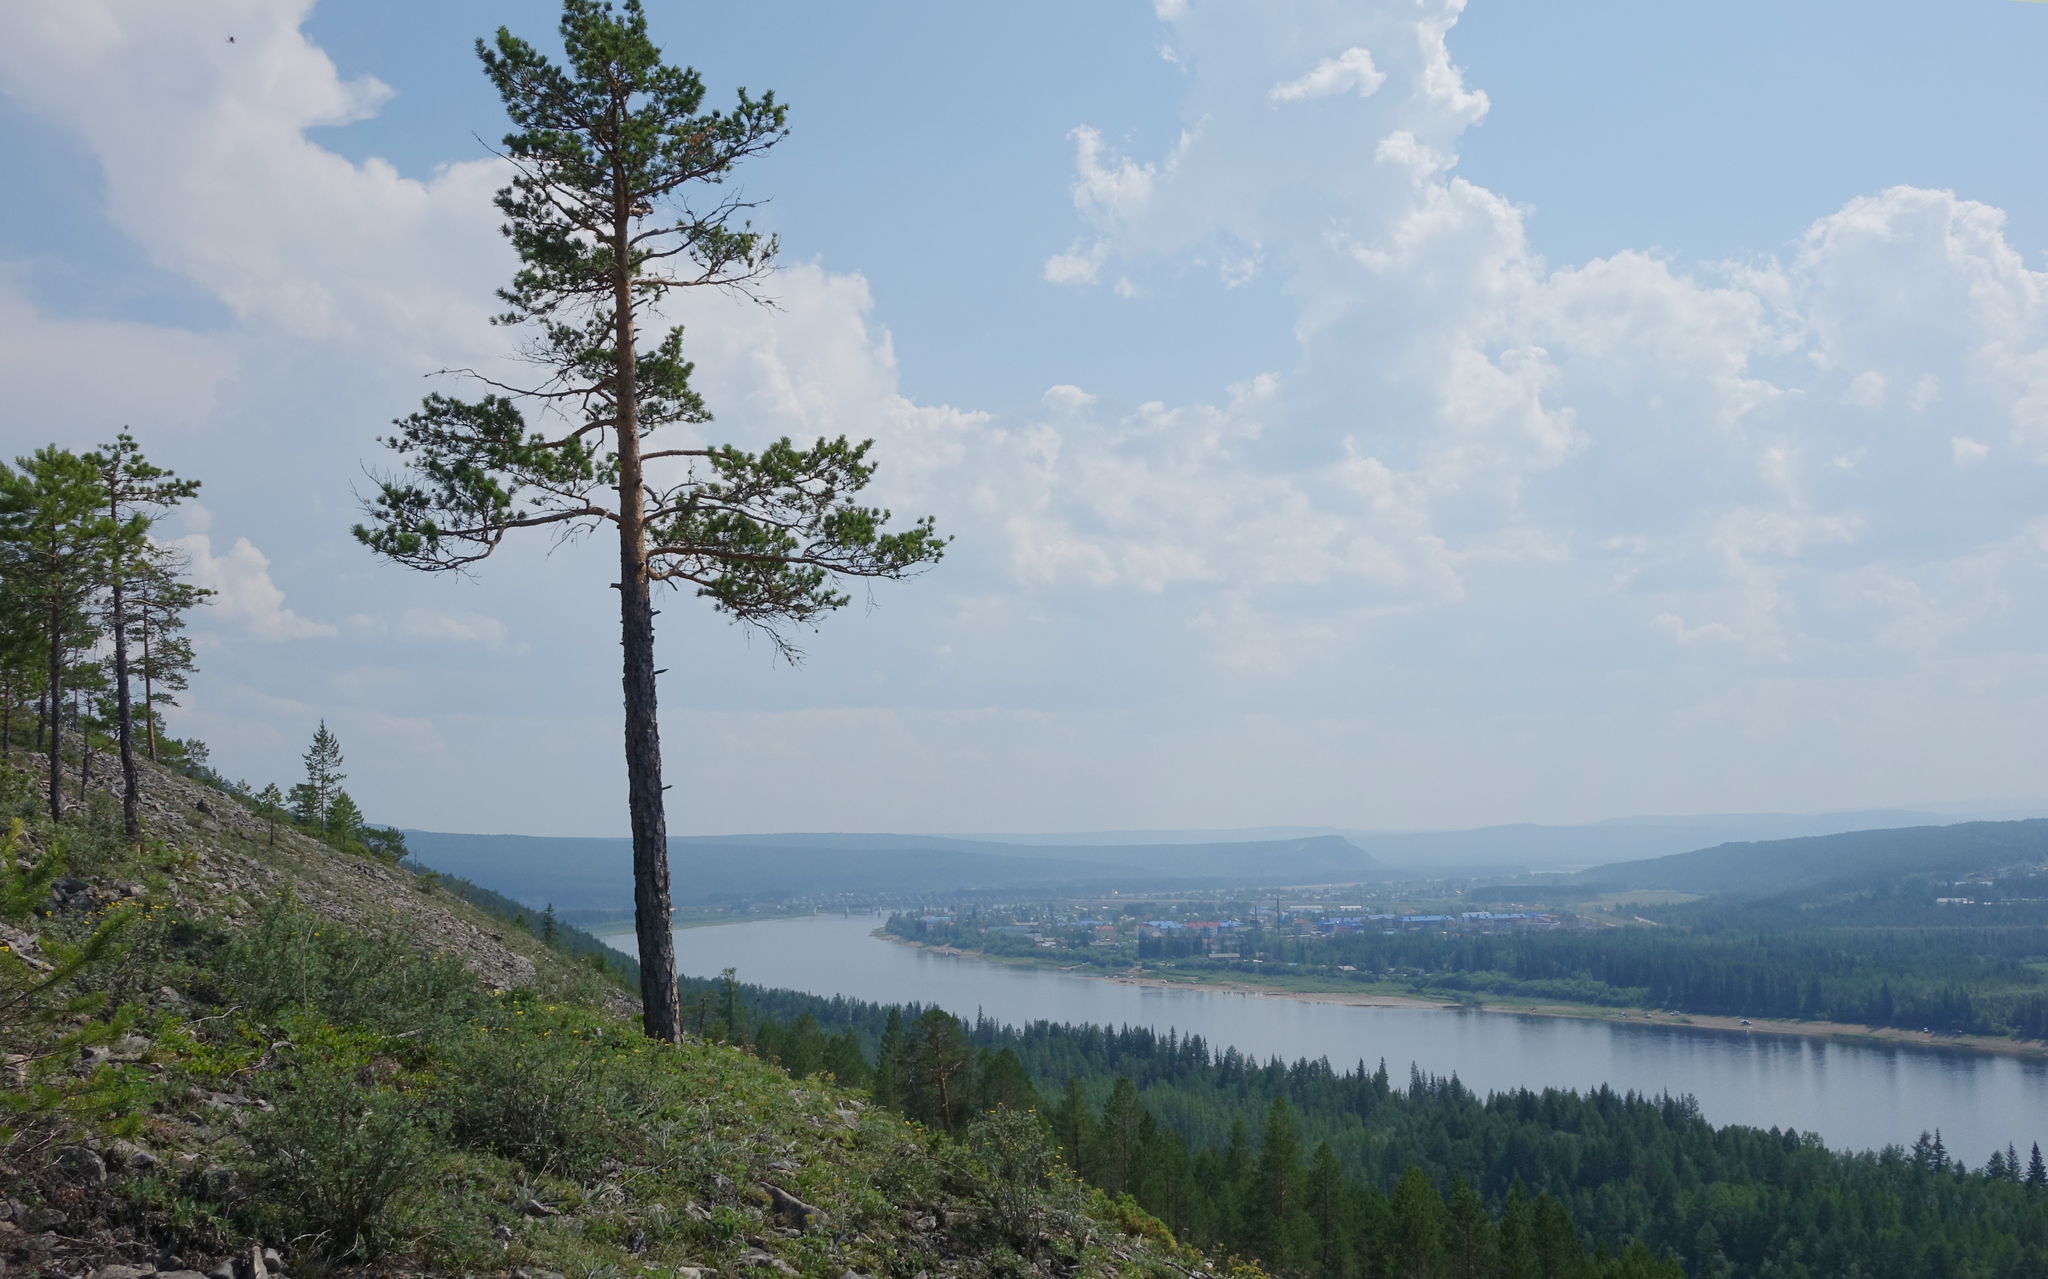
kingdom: Plantae
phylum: Tracheophyta
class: Pinopsida
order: Pinales
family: Pinaceae
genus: Pinus
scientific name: Pinus sylvestris
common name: Scots pine
